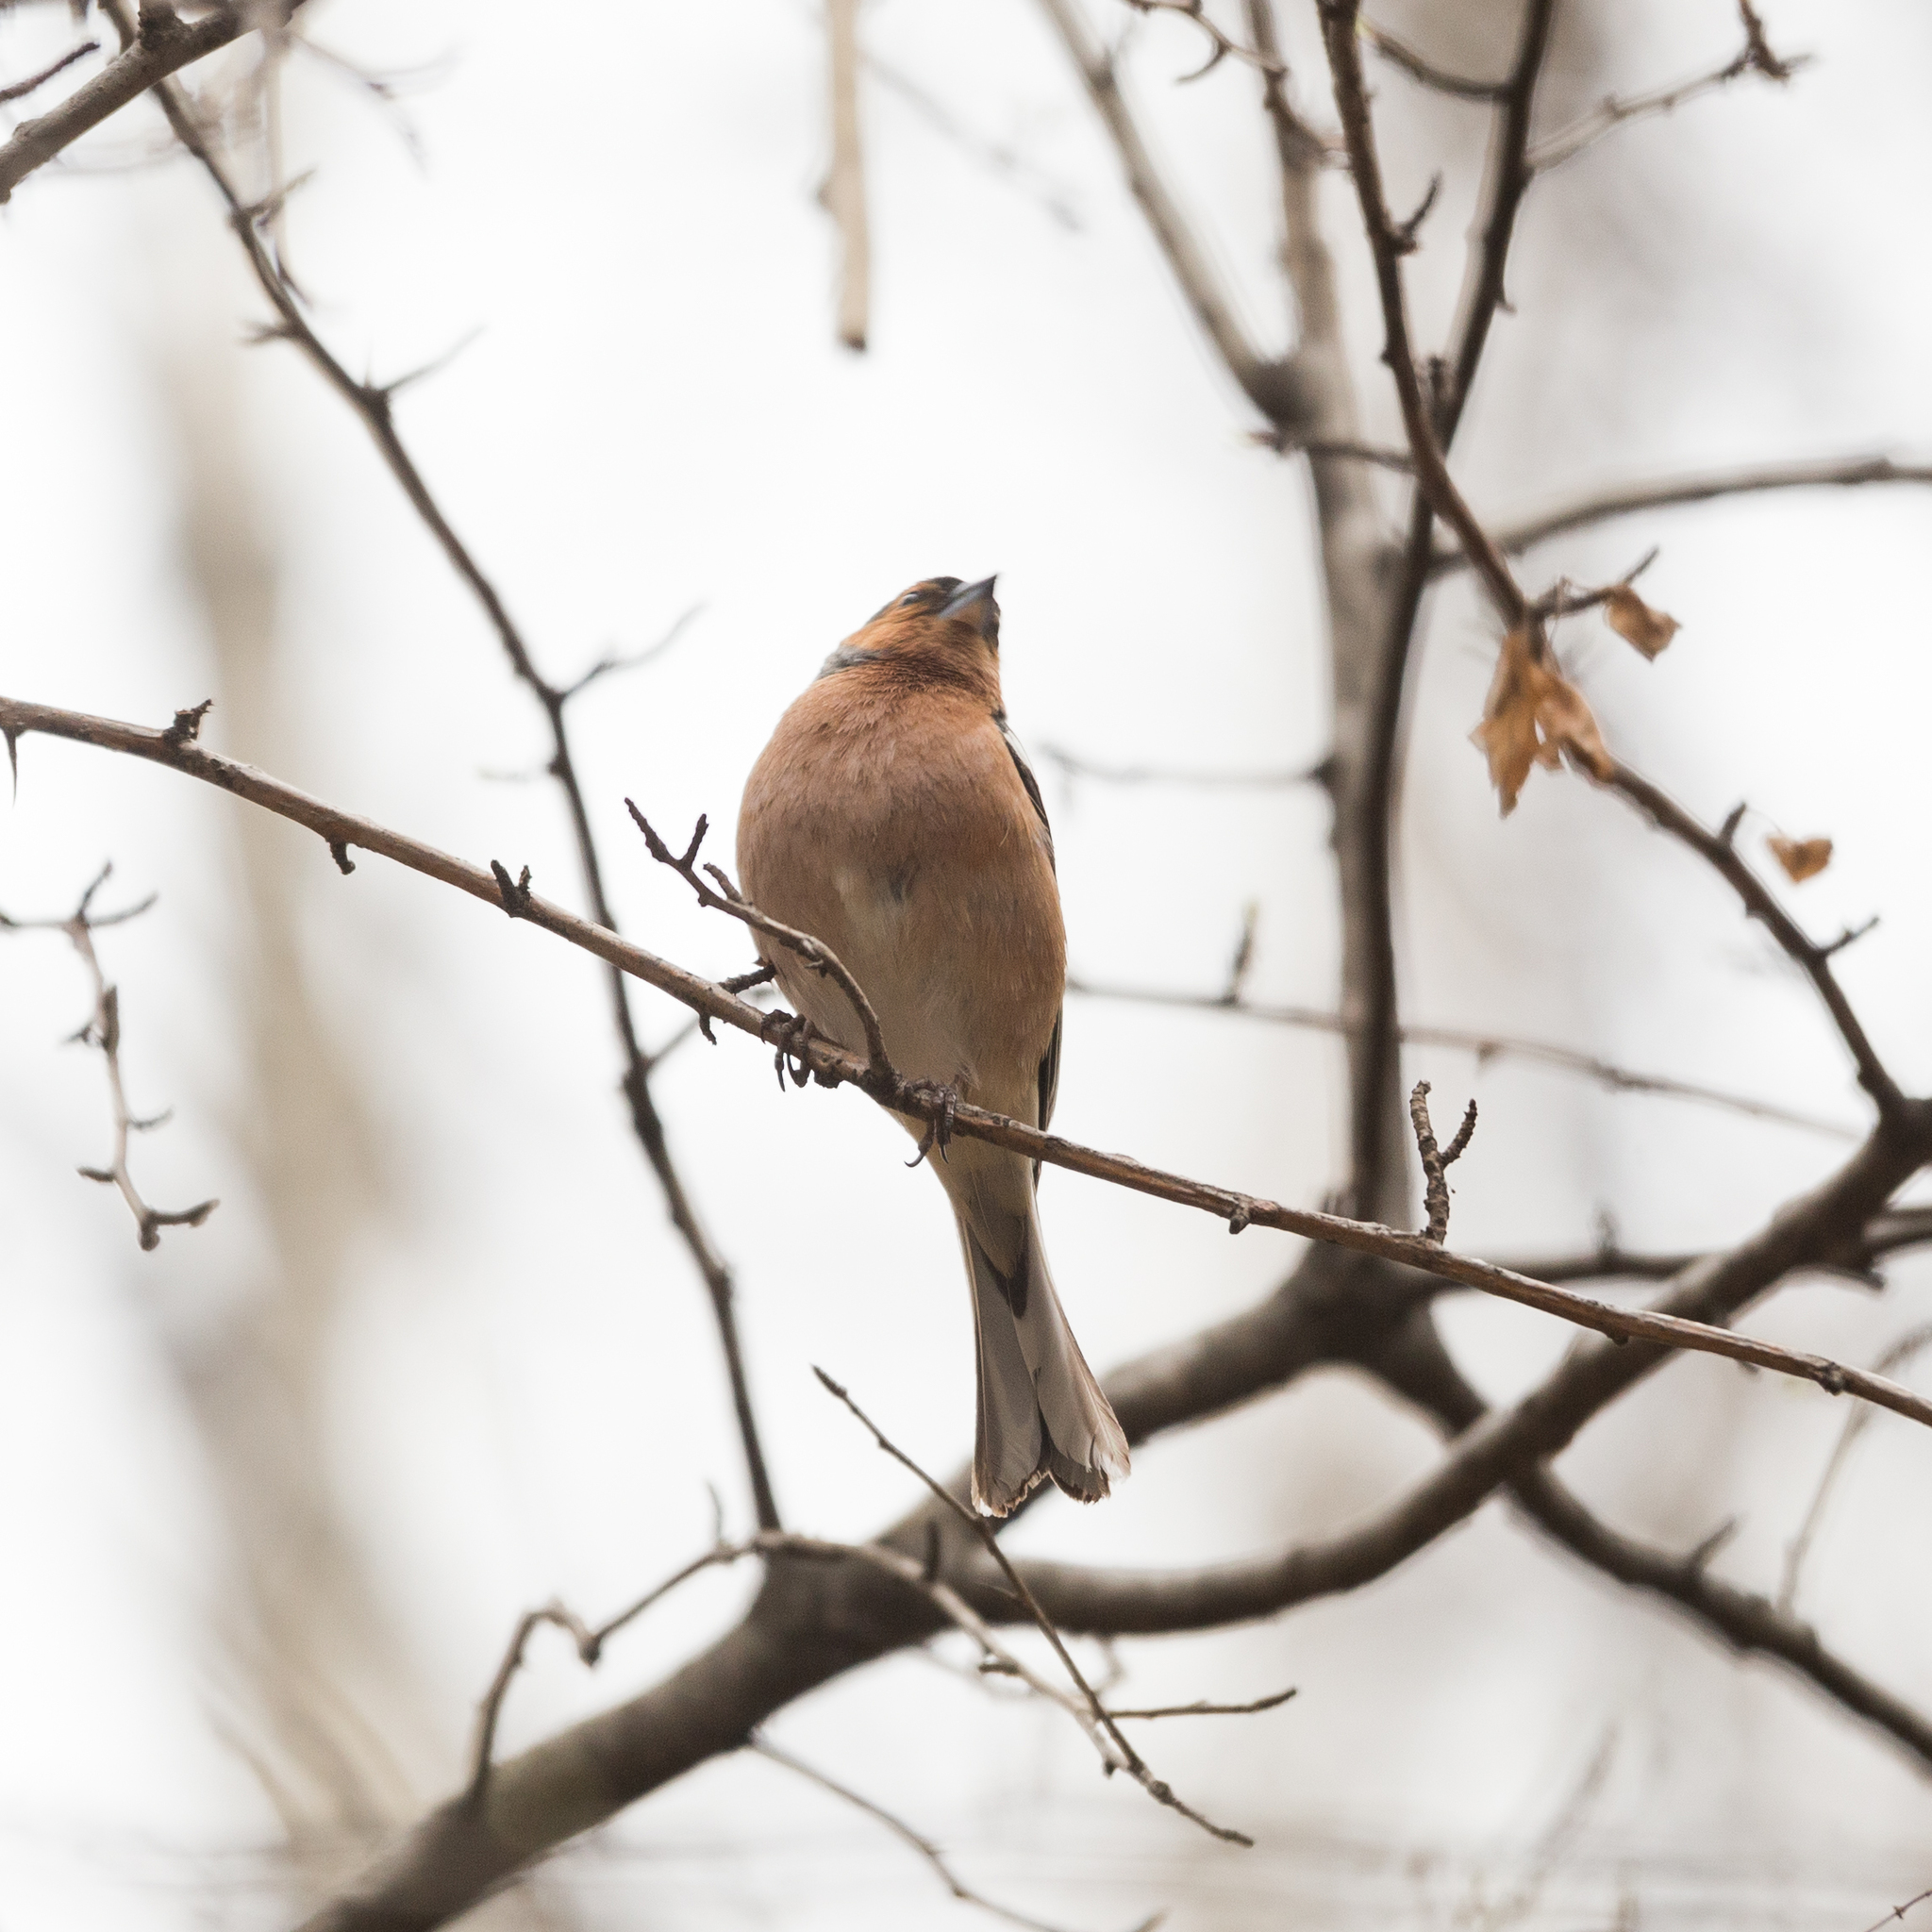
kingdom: Animalia
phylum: Chordata
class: Aves
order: Passeriformes
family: Fringillidae
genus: Fringilla
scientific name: Fringilla coelebs
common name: Common chaffinch
